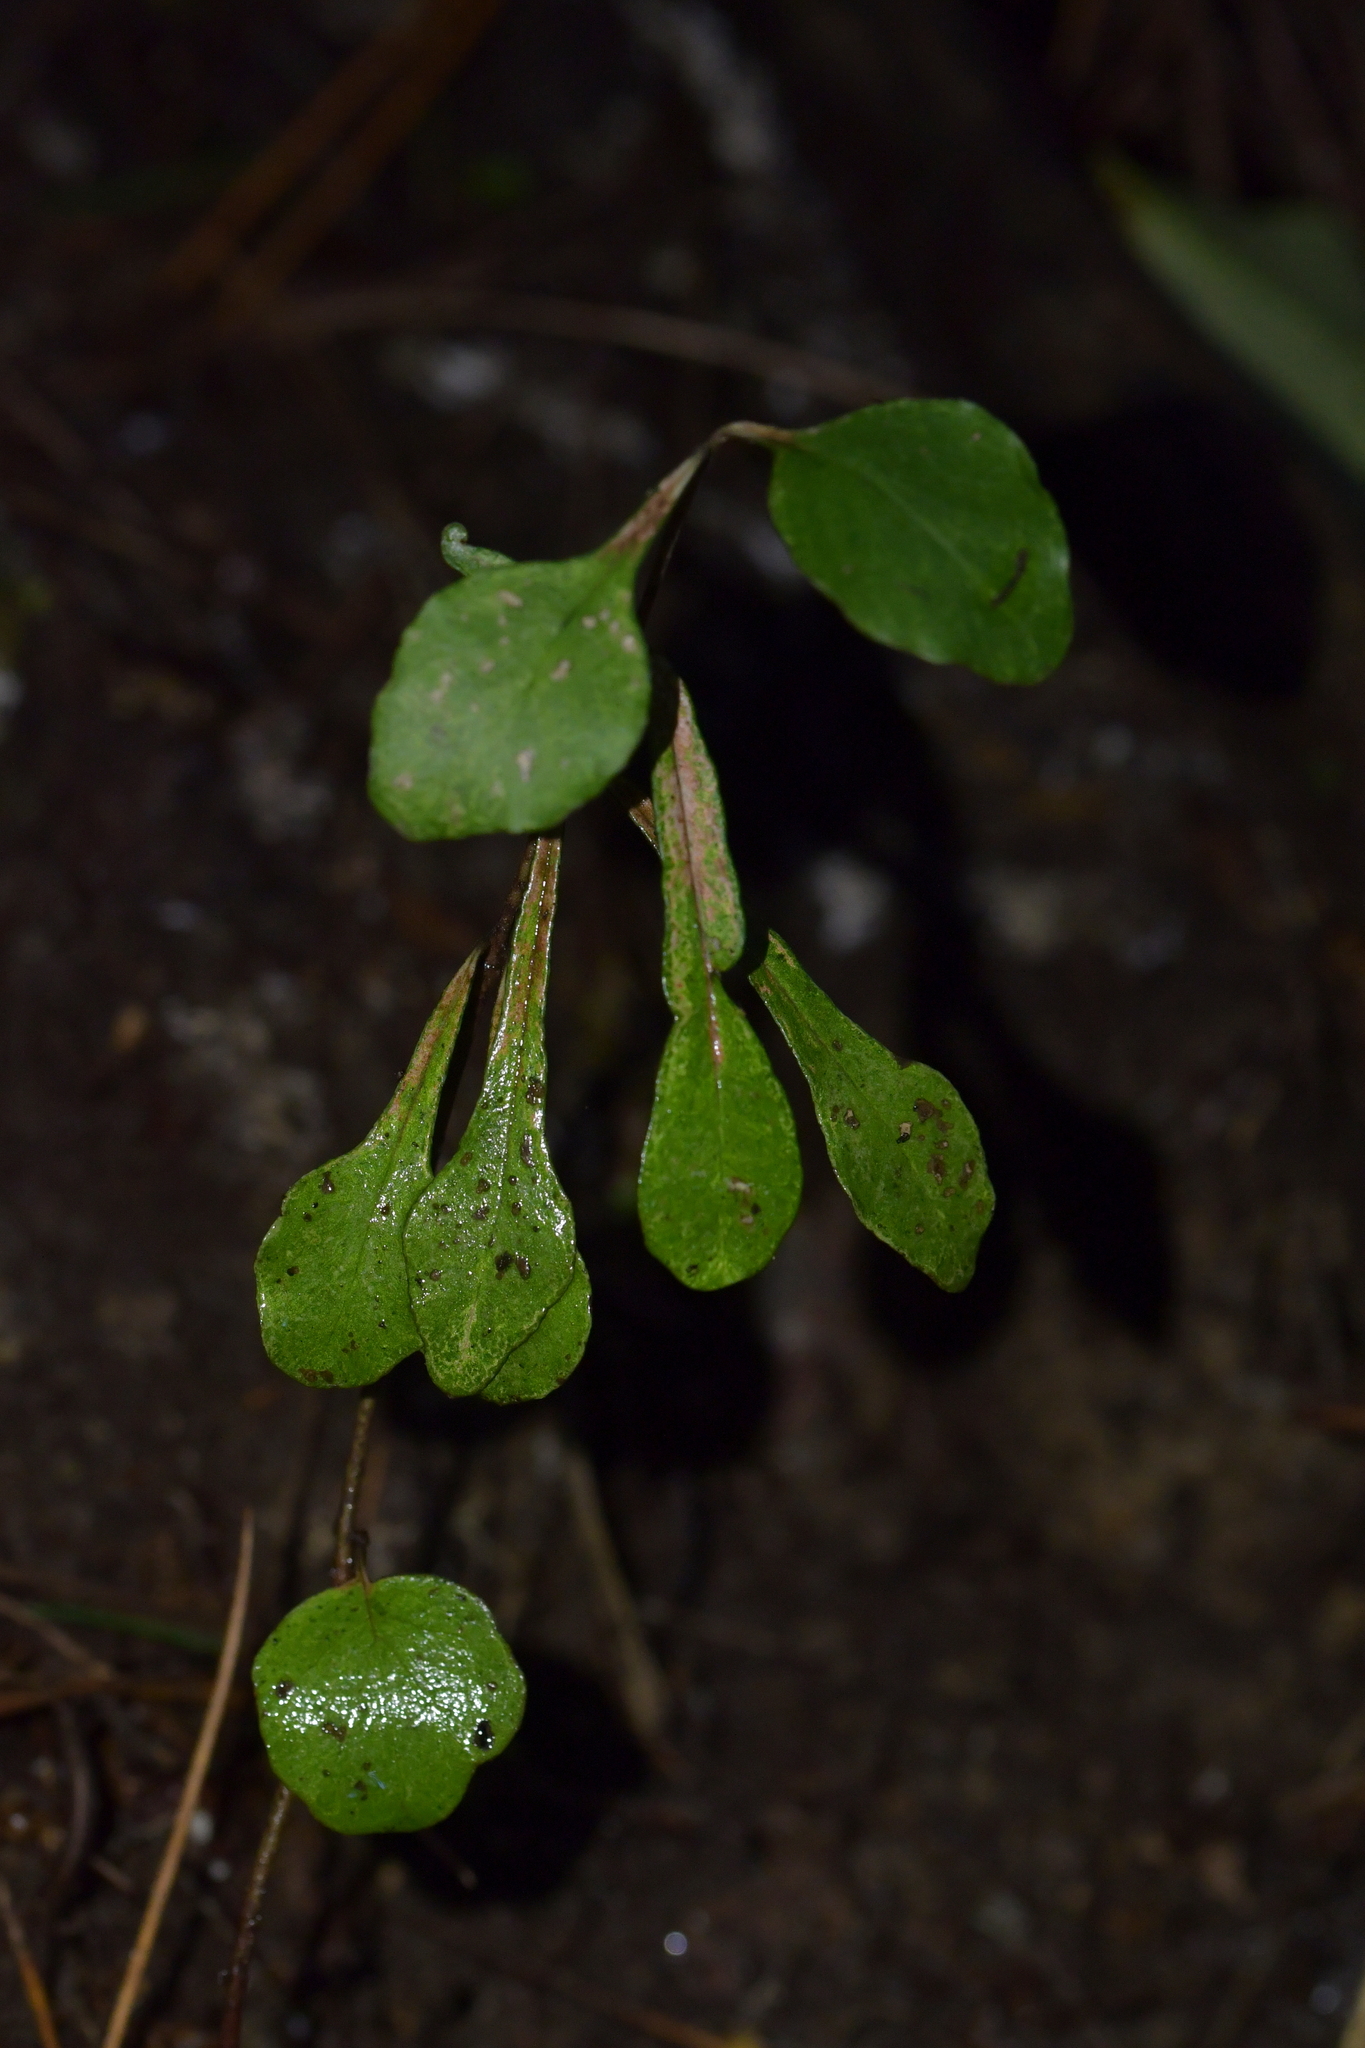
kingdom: Plantae
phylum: Tracheophyta
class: Magnoliopsida
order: Gentianales
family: Rubiaceae
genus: Coprosma
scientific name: Coprosma foetidissima
